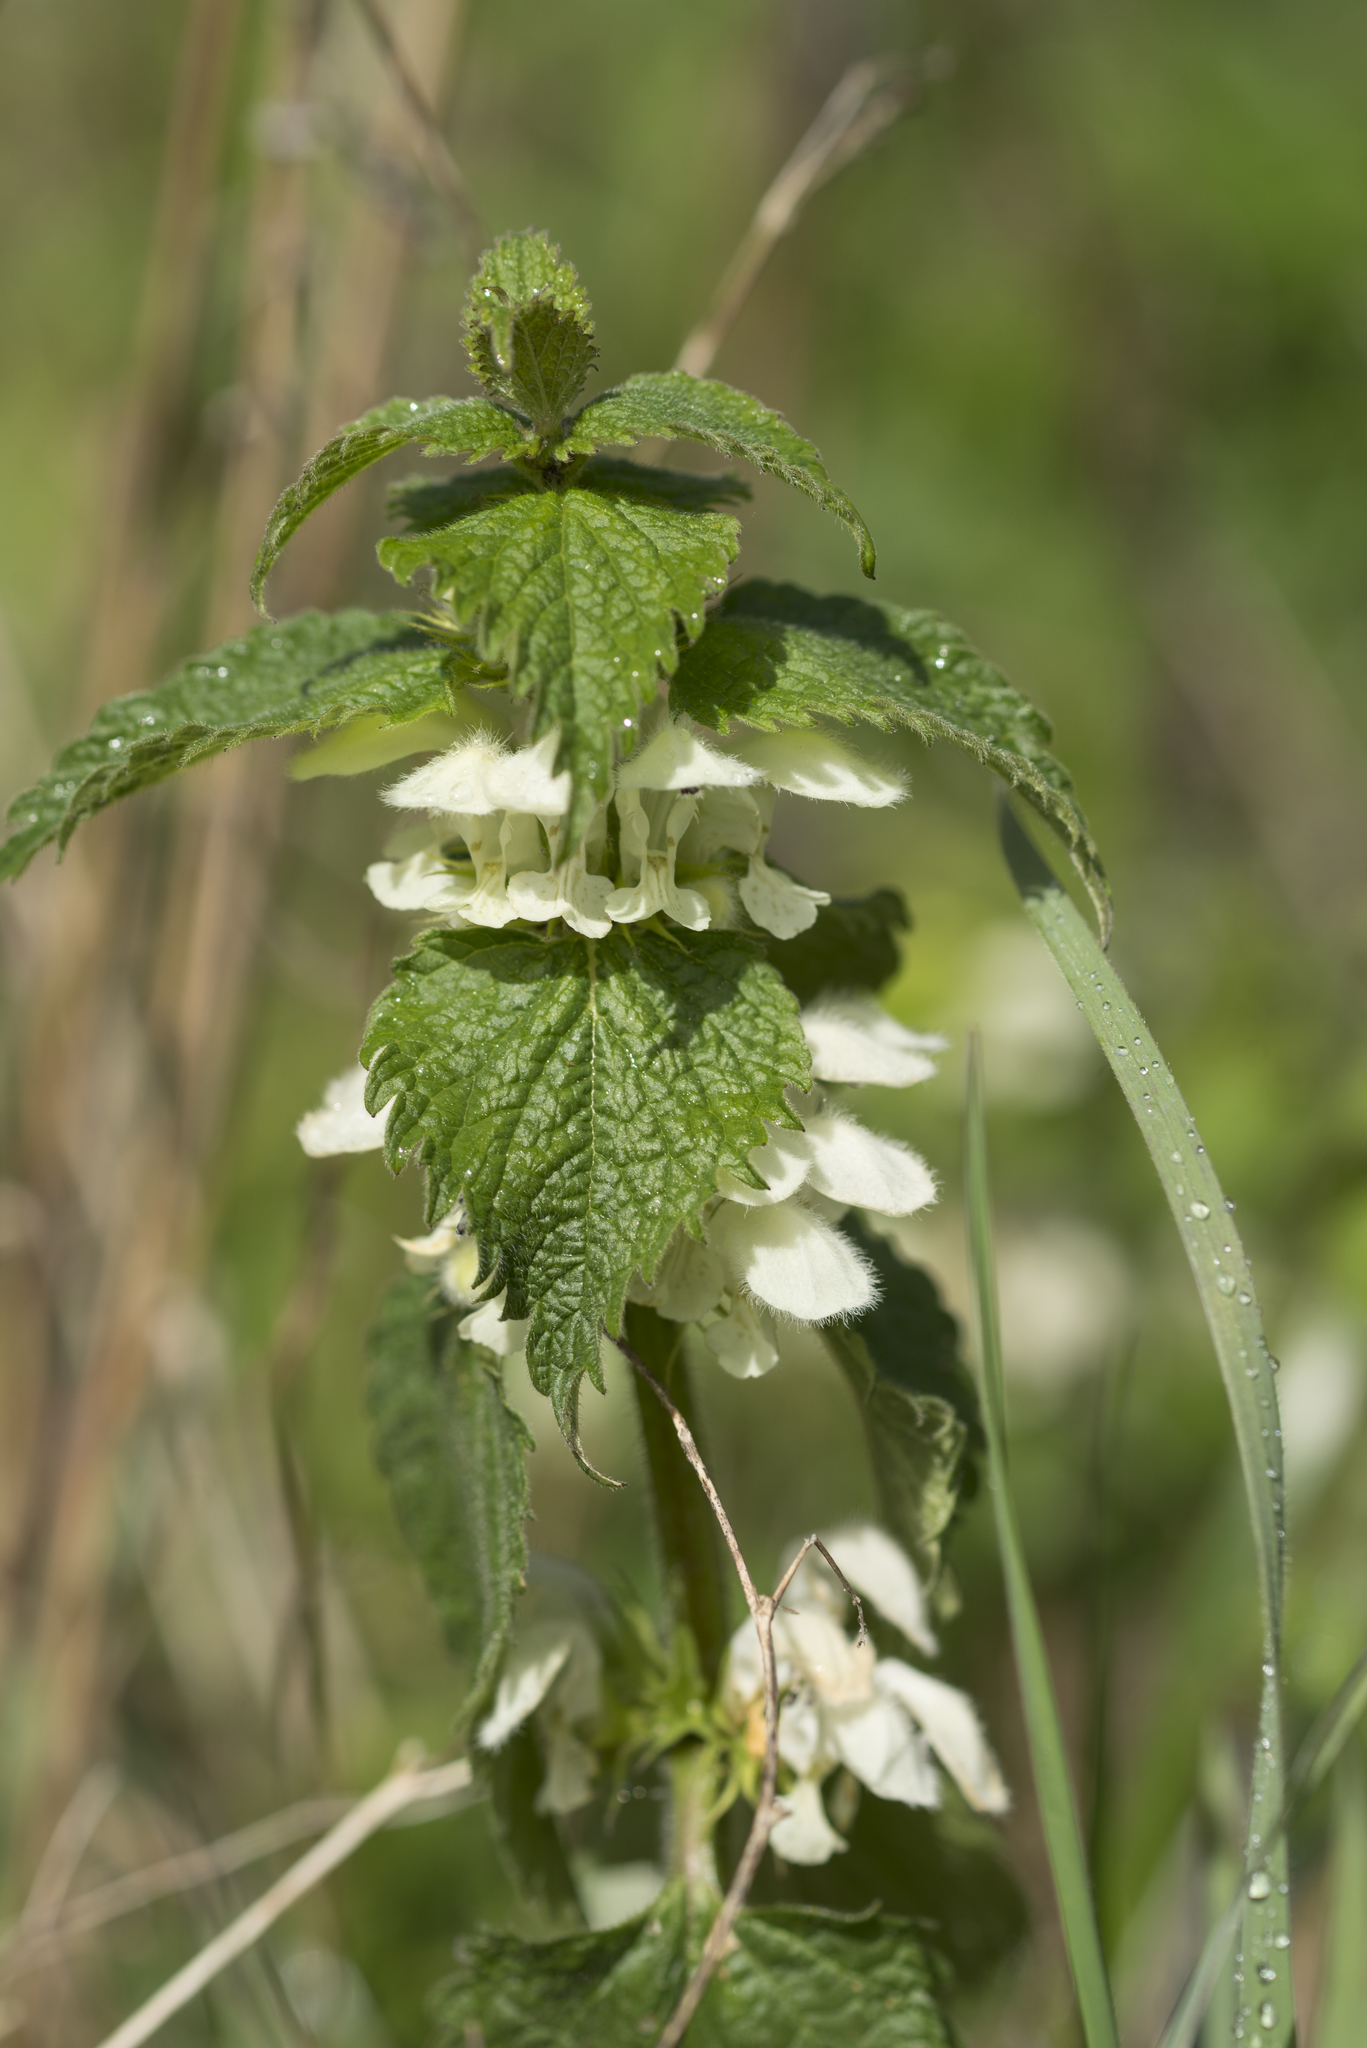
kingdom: Plantae
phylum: Tracheophyta
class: Magnoliopsida
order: Lamiales
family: Lamiaceae
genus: Lamium
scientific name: Lamium album
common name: White dead-nettle
